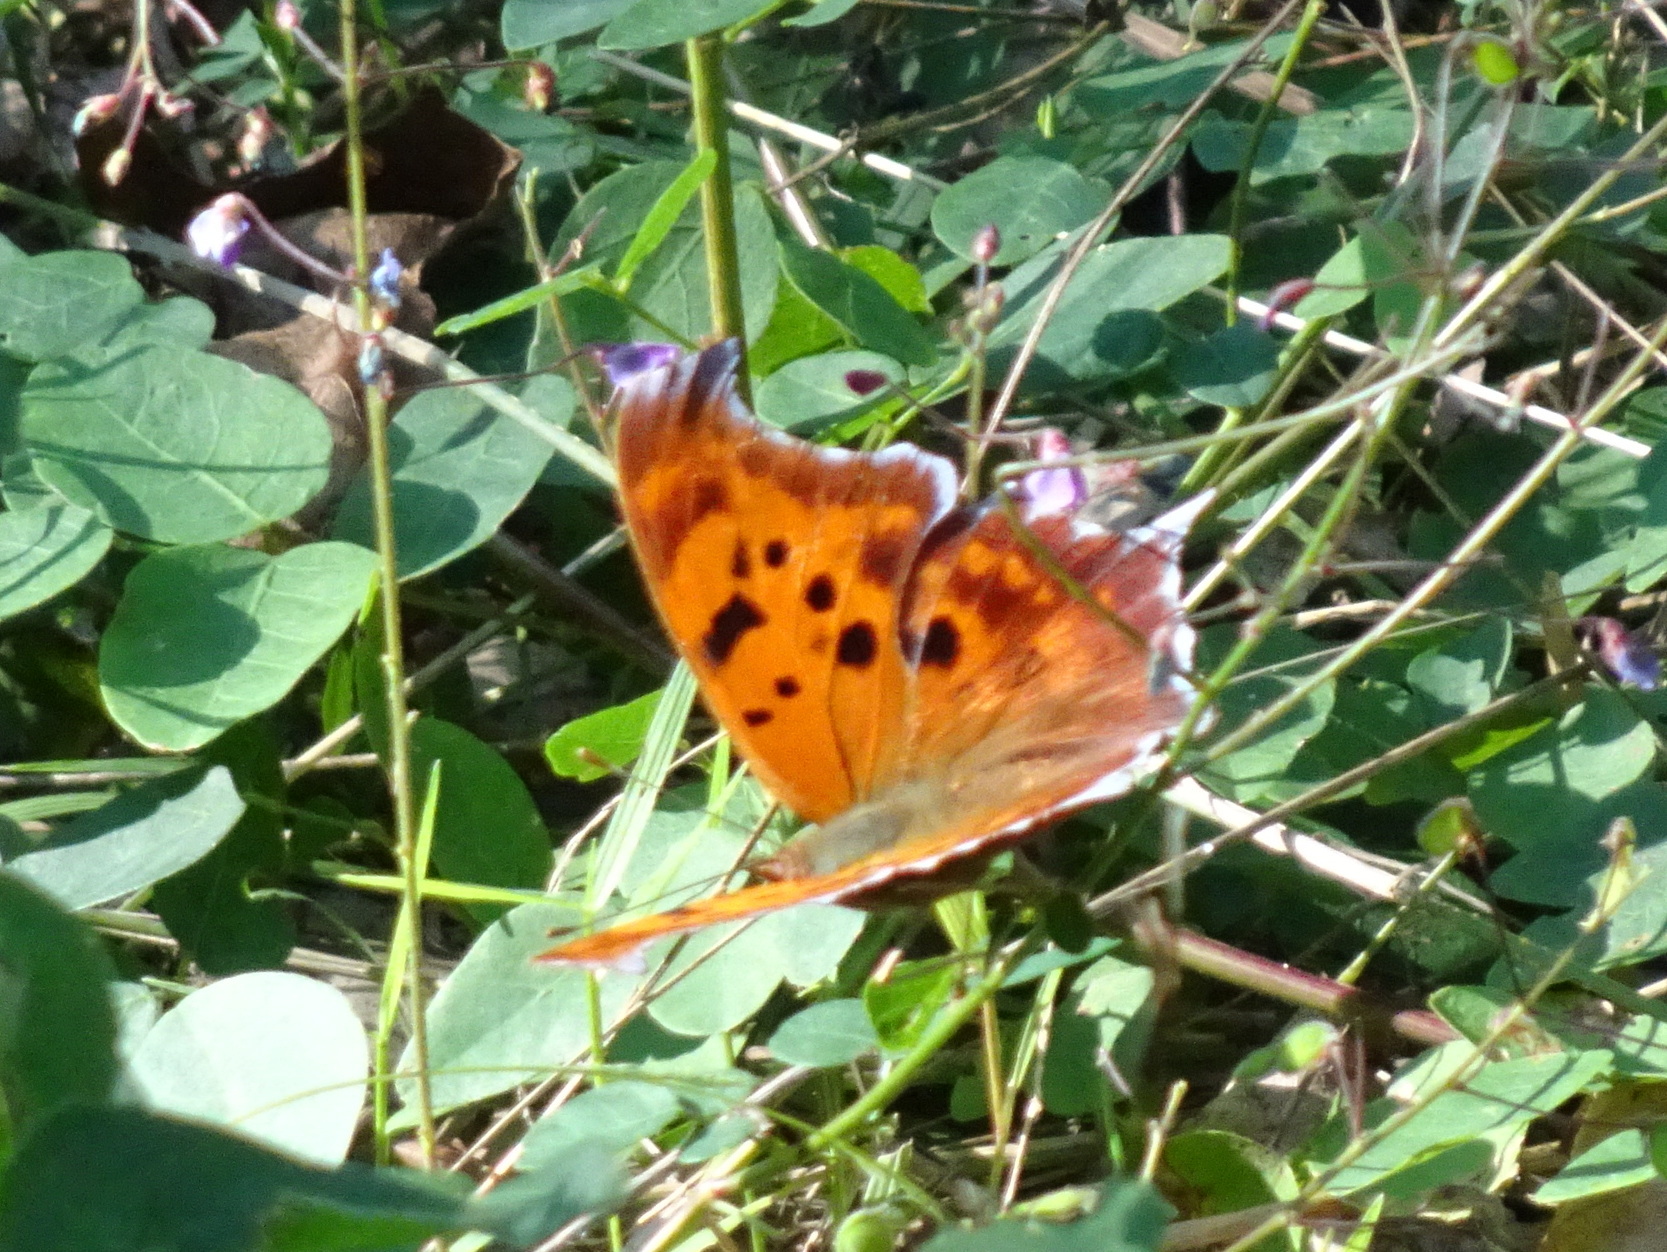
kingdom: Animalia
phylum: Arthropoda
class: Insecta
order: Lepidoptera
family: Nymphalidae
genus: Polygonia
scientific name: Polygonia interrogationis
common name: Question mark
